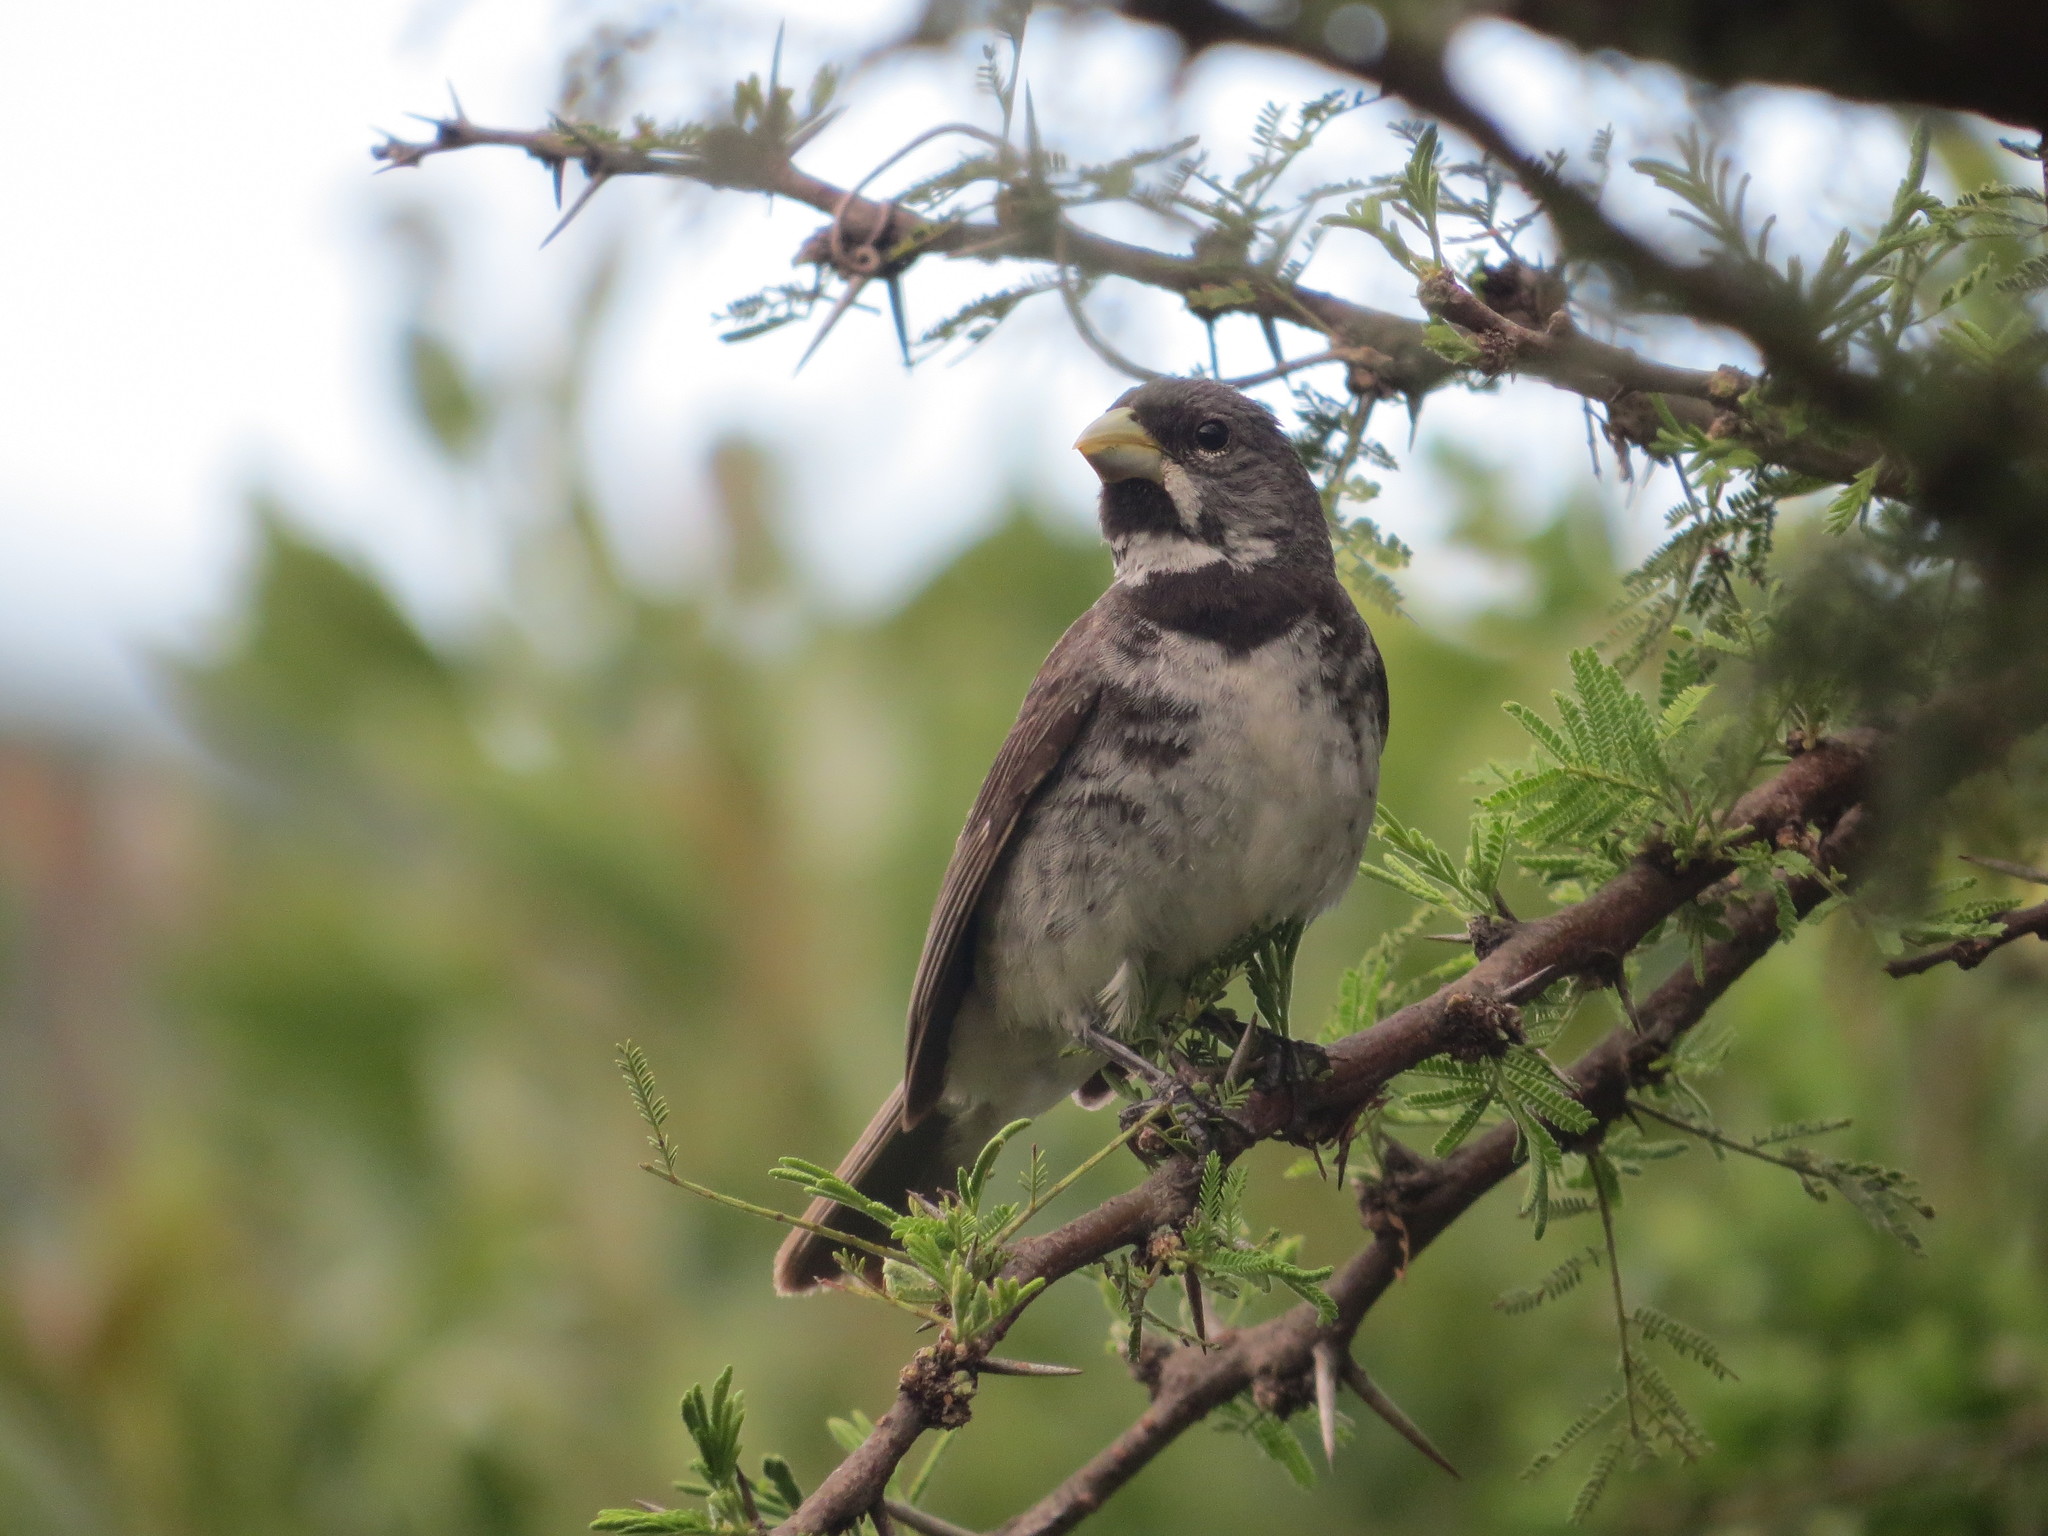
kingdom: Animalia
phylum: Chordata
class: Aves
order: Passeriformes
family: Thraupidae
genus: Sporophila
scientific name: Sporophila caerulescens
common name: Double-collared seedeater
